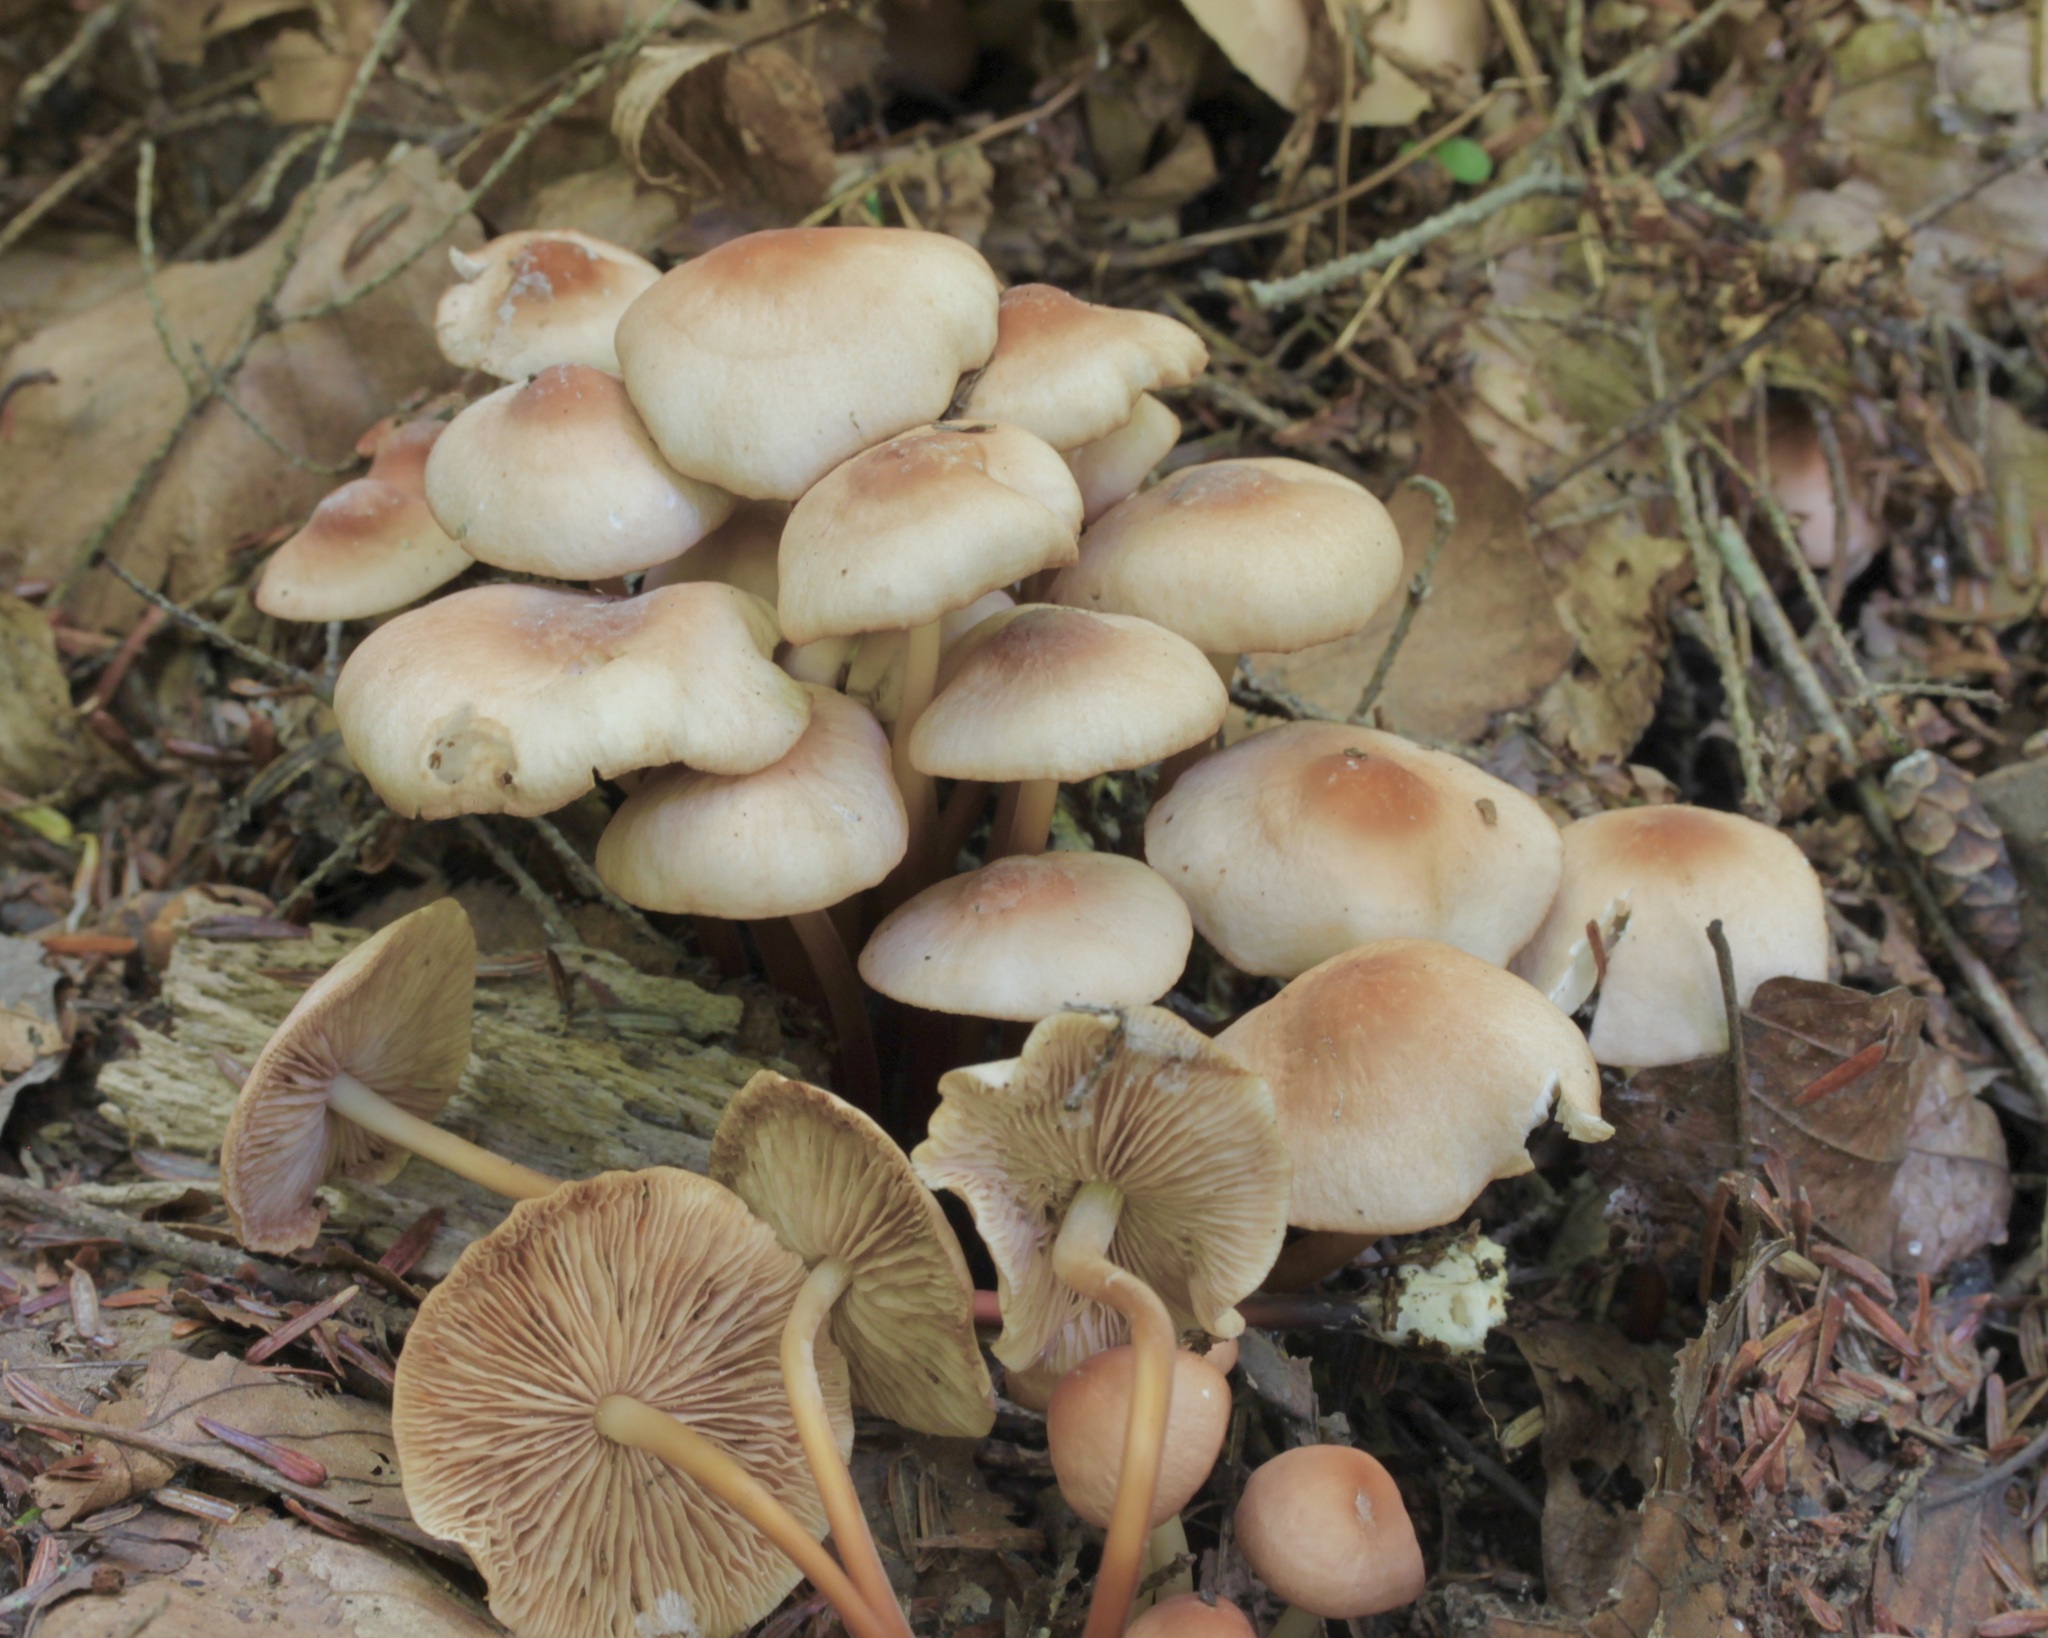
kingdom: Fungi
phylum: Basidiomycota
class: Agaricomycetes
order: Agaricales
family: Marasmiaceae
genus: Marasmius
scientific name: Marasmius cohaerens
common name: Bristled parachute
